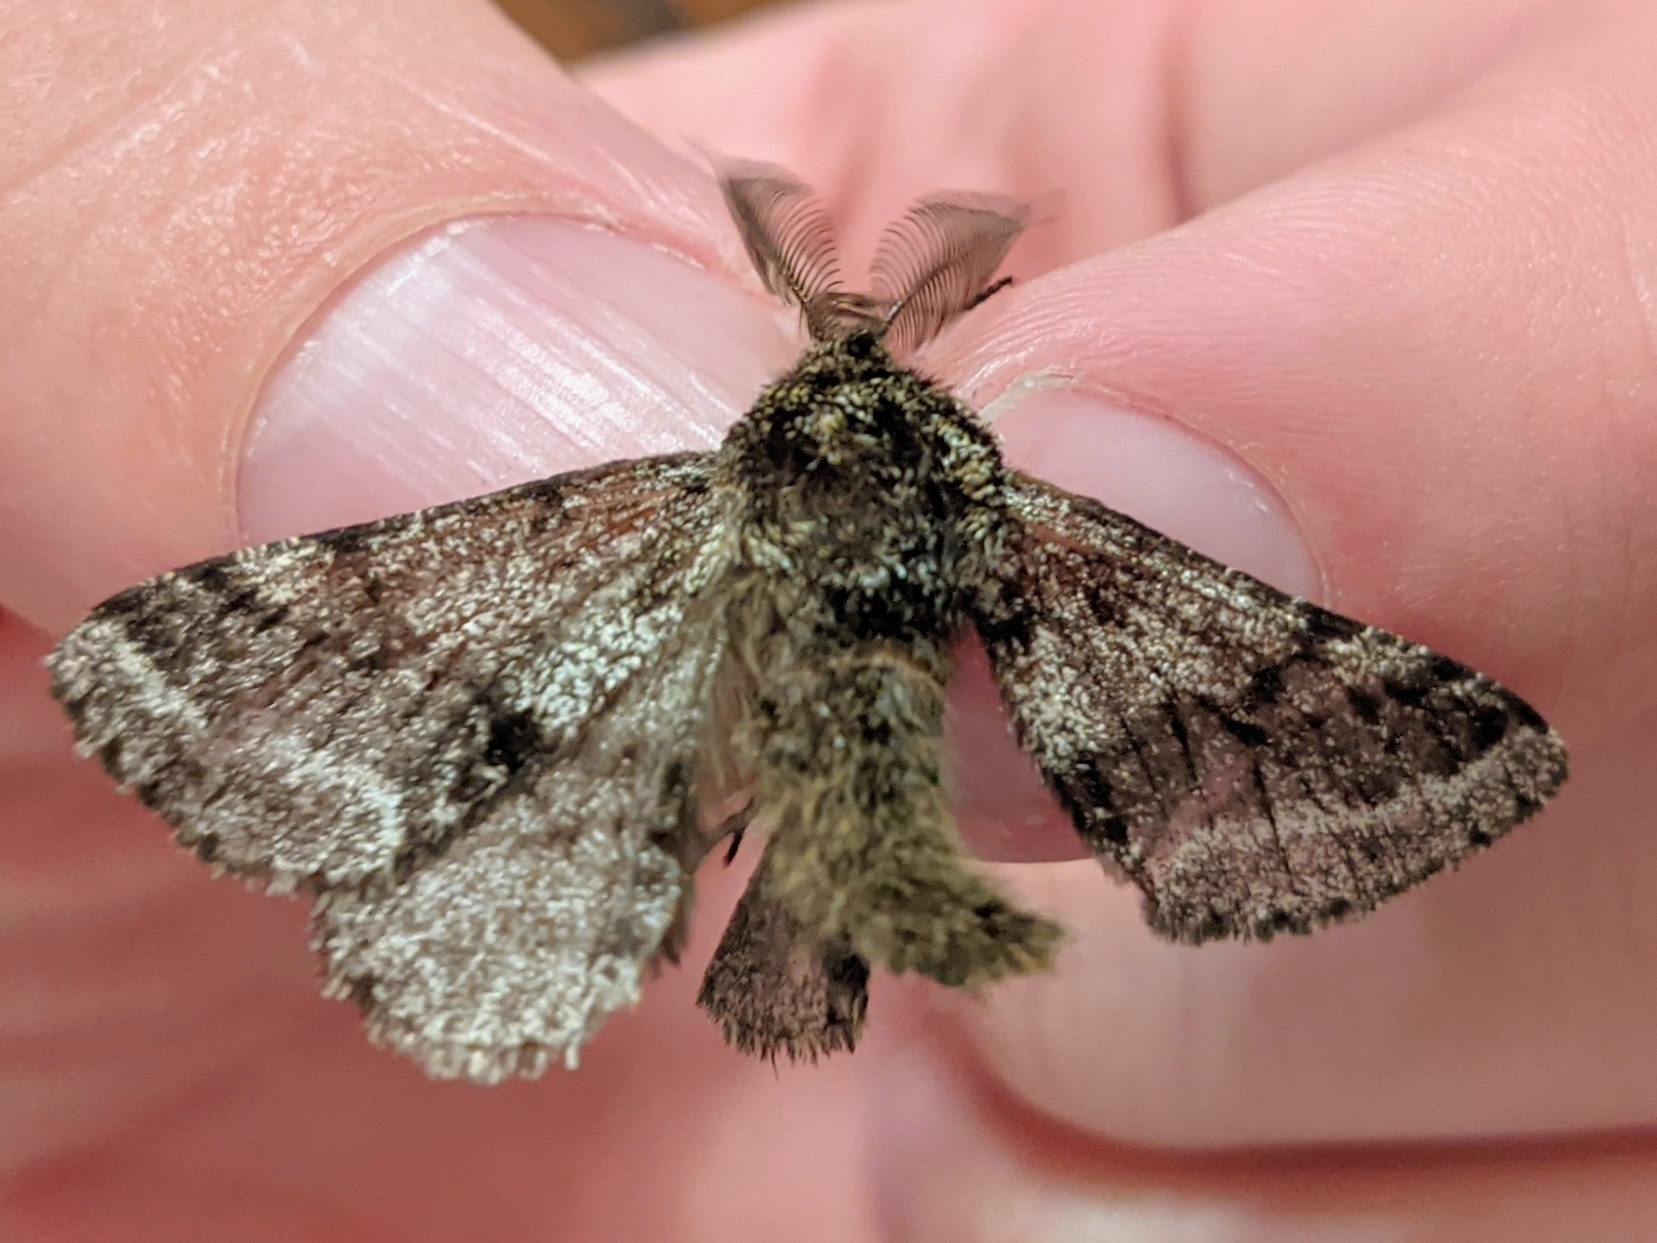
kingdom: Animalia
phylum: Arthropoda
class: Insecta
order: Lepidoptera
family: Geometridae
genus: Lycia
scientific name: Lycia hirtaria
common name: Brindled beauty
